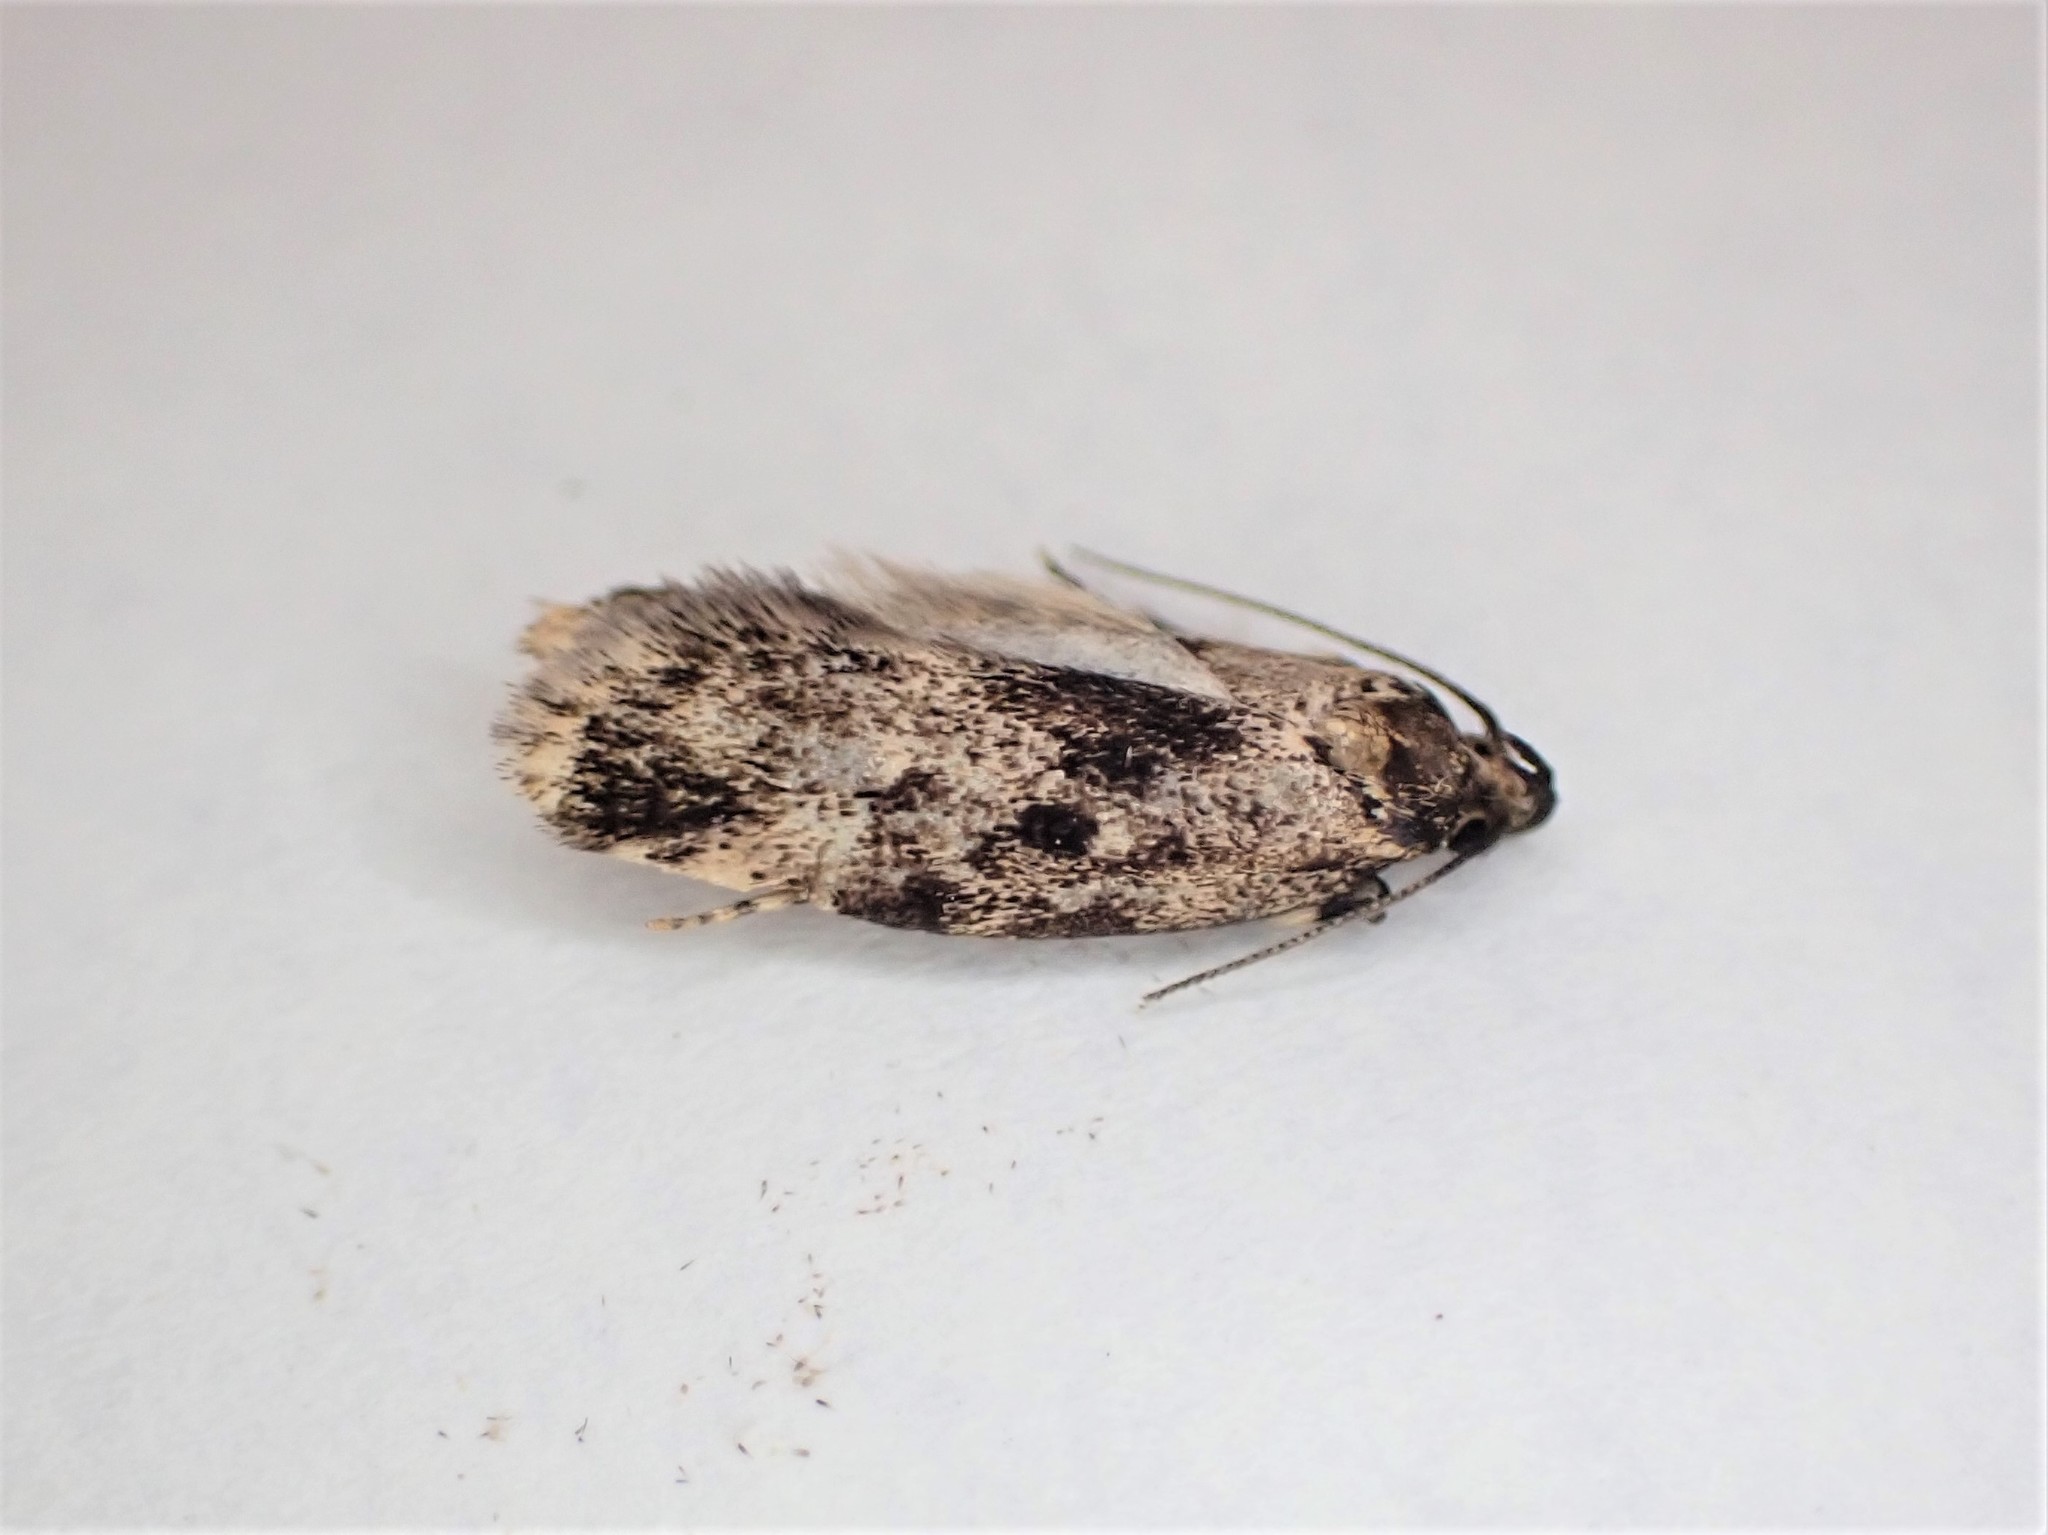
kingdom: Animalia
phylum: Arthropoda
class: Insecta
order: Lepidoptera
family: Oecophoridae
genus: Barea
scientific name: Barea codrella
